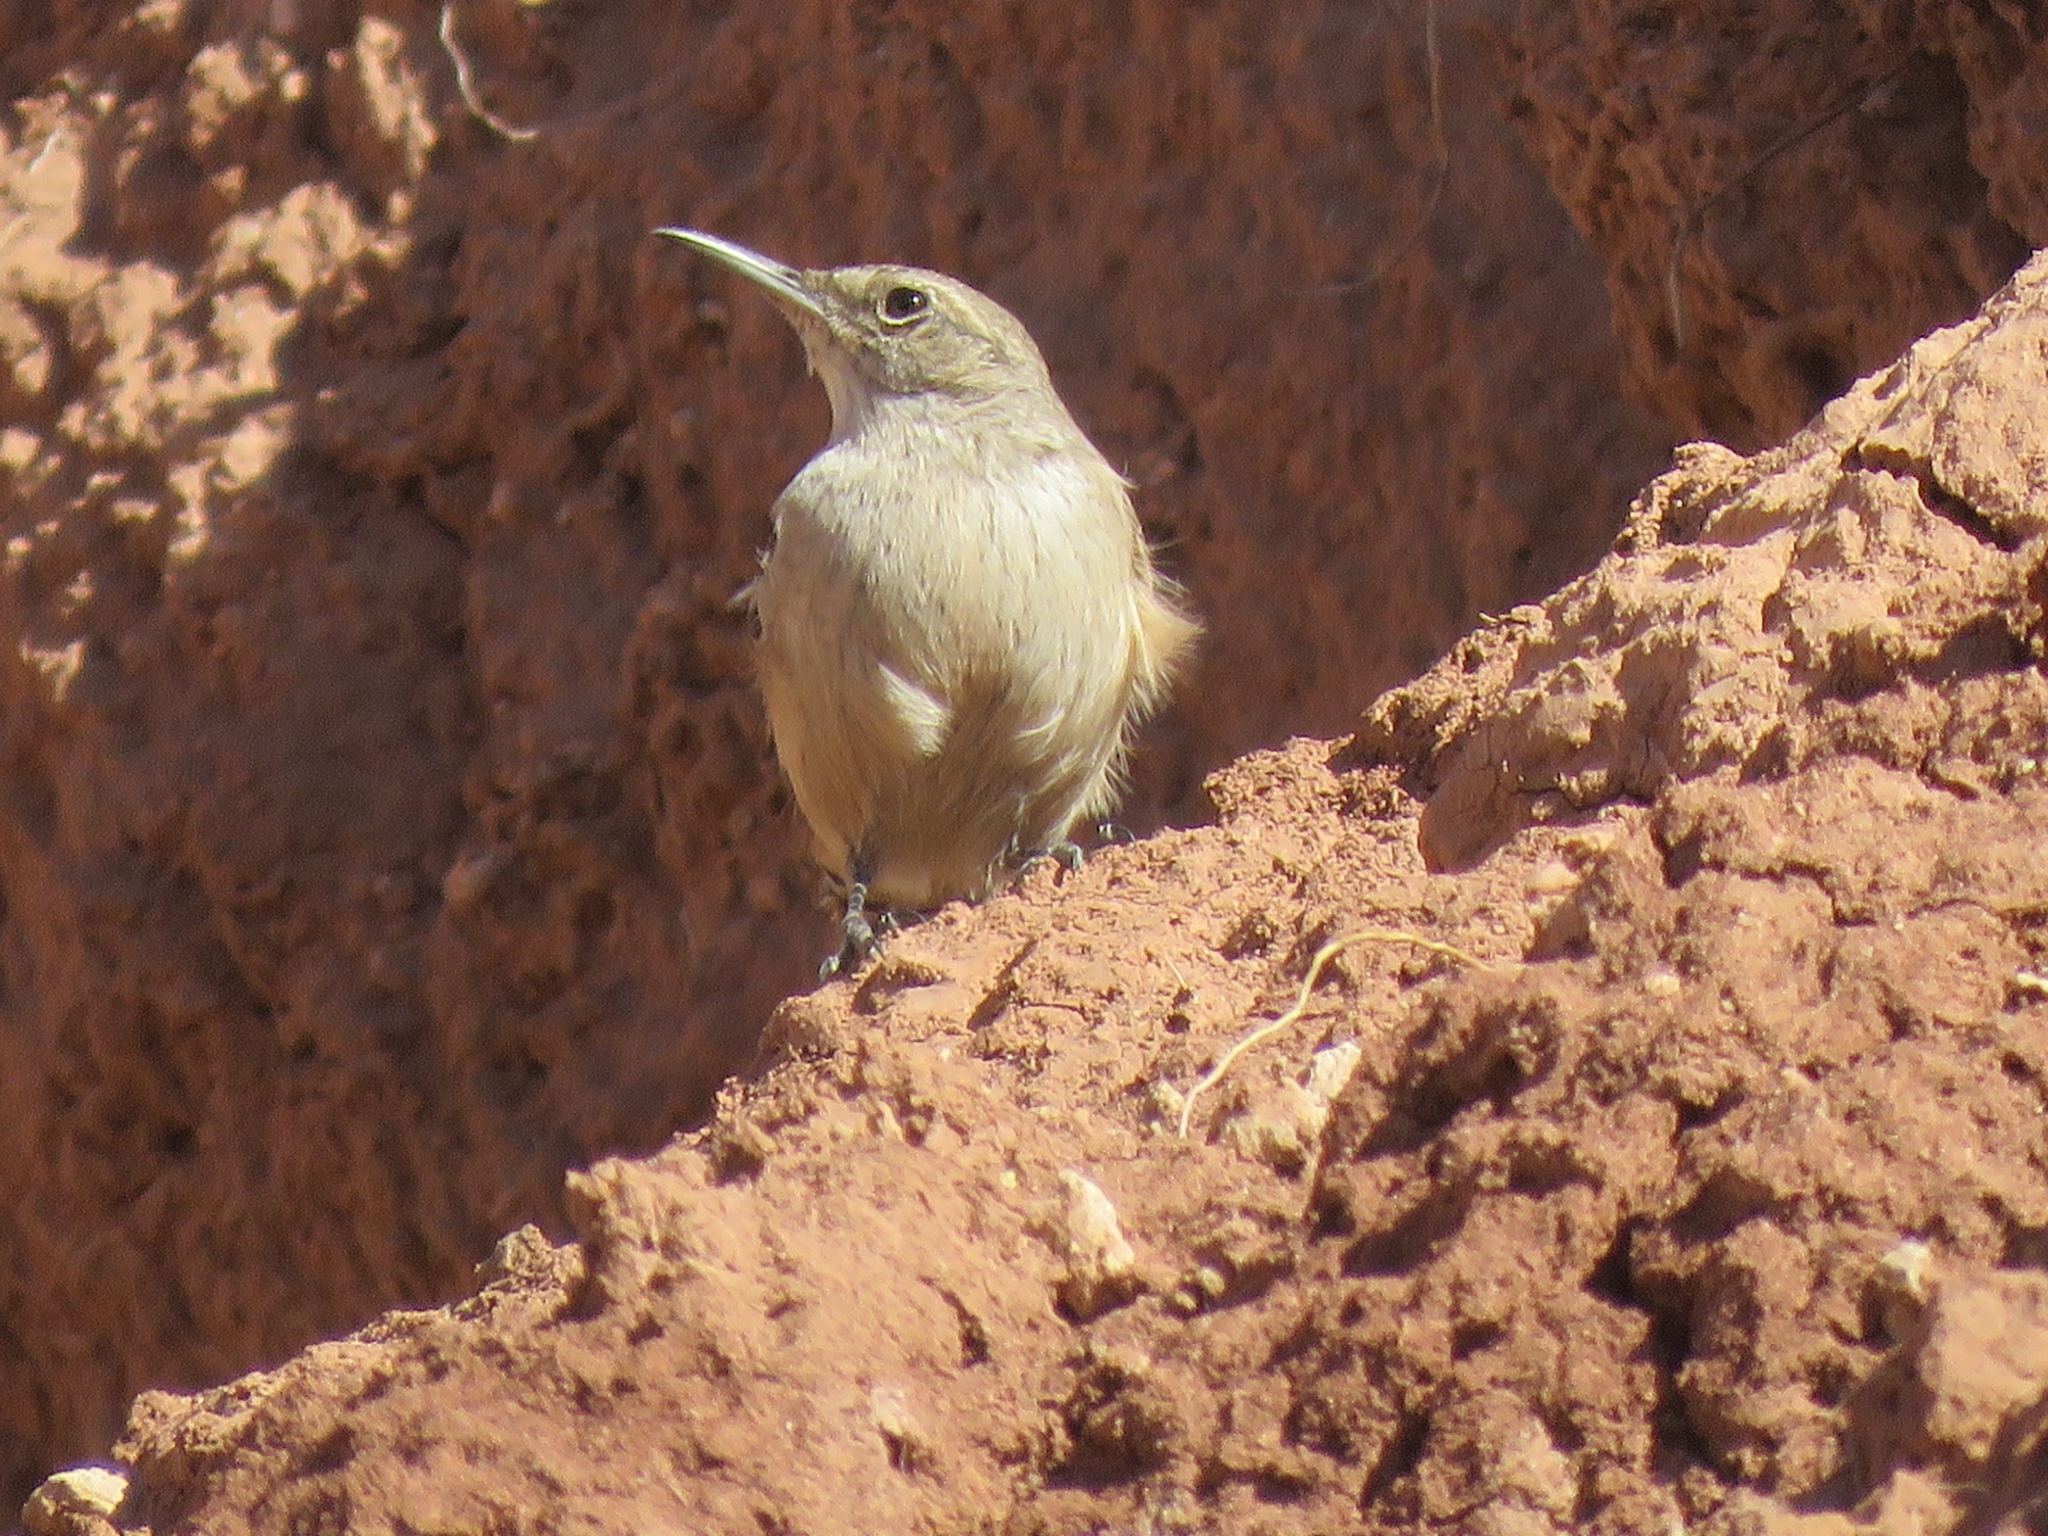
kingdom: Animalia
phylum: Chordata
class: Aves
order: Passeriformes
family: Troglodytidae
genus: Salpinctes
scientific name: Salpinctes obsoletus
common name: Rock wren
